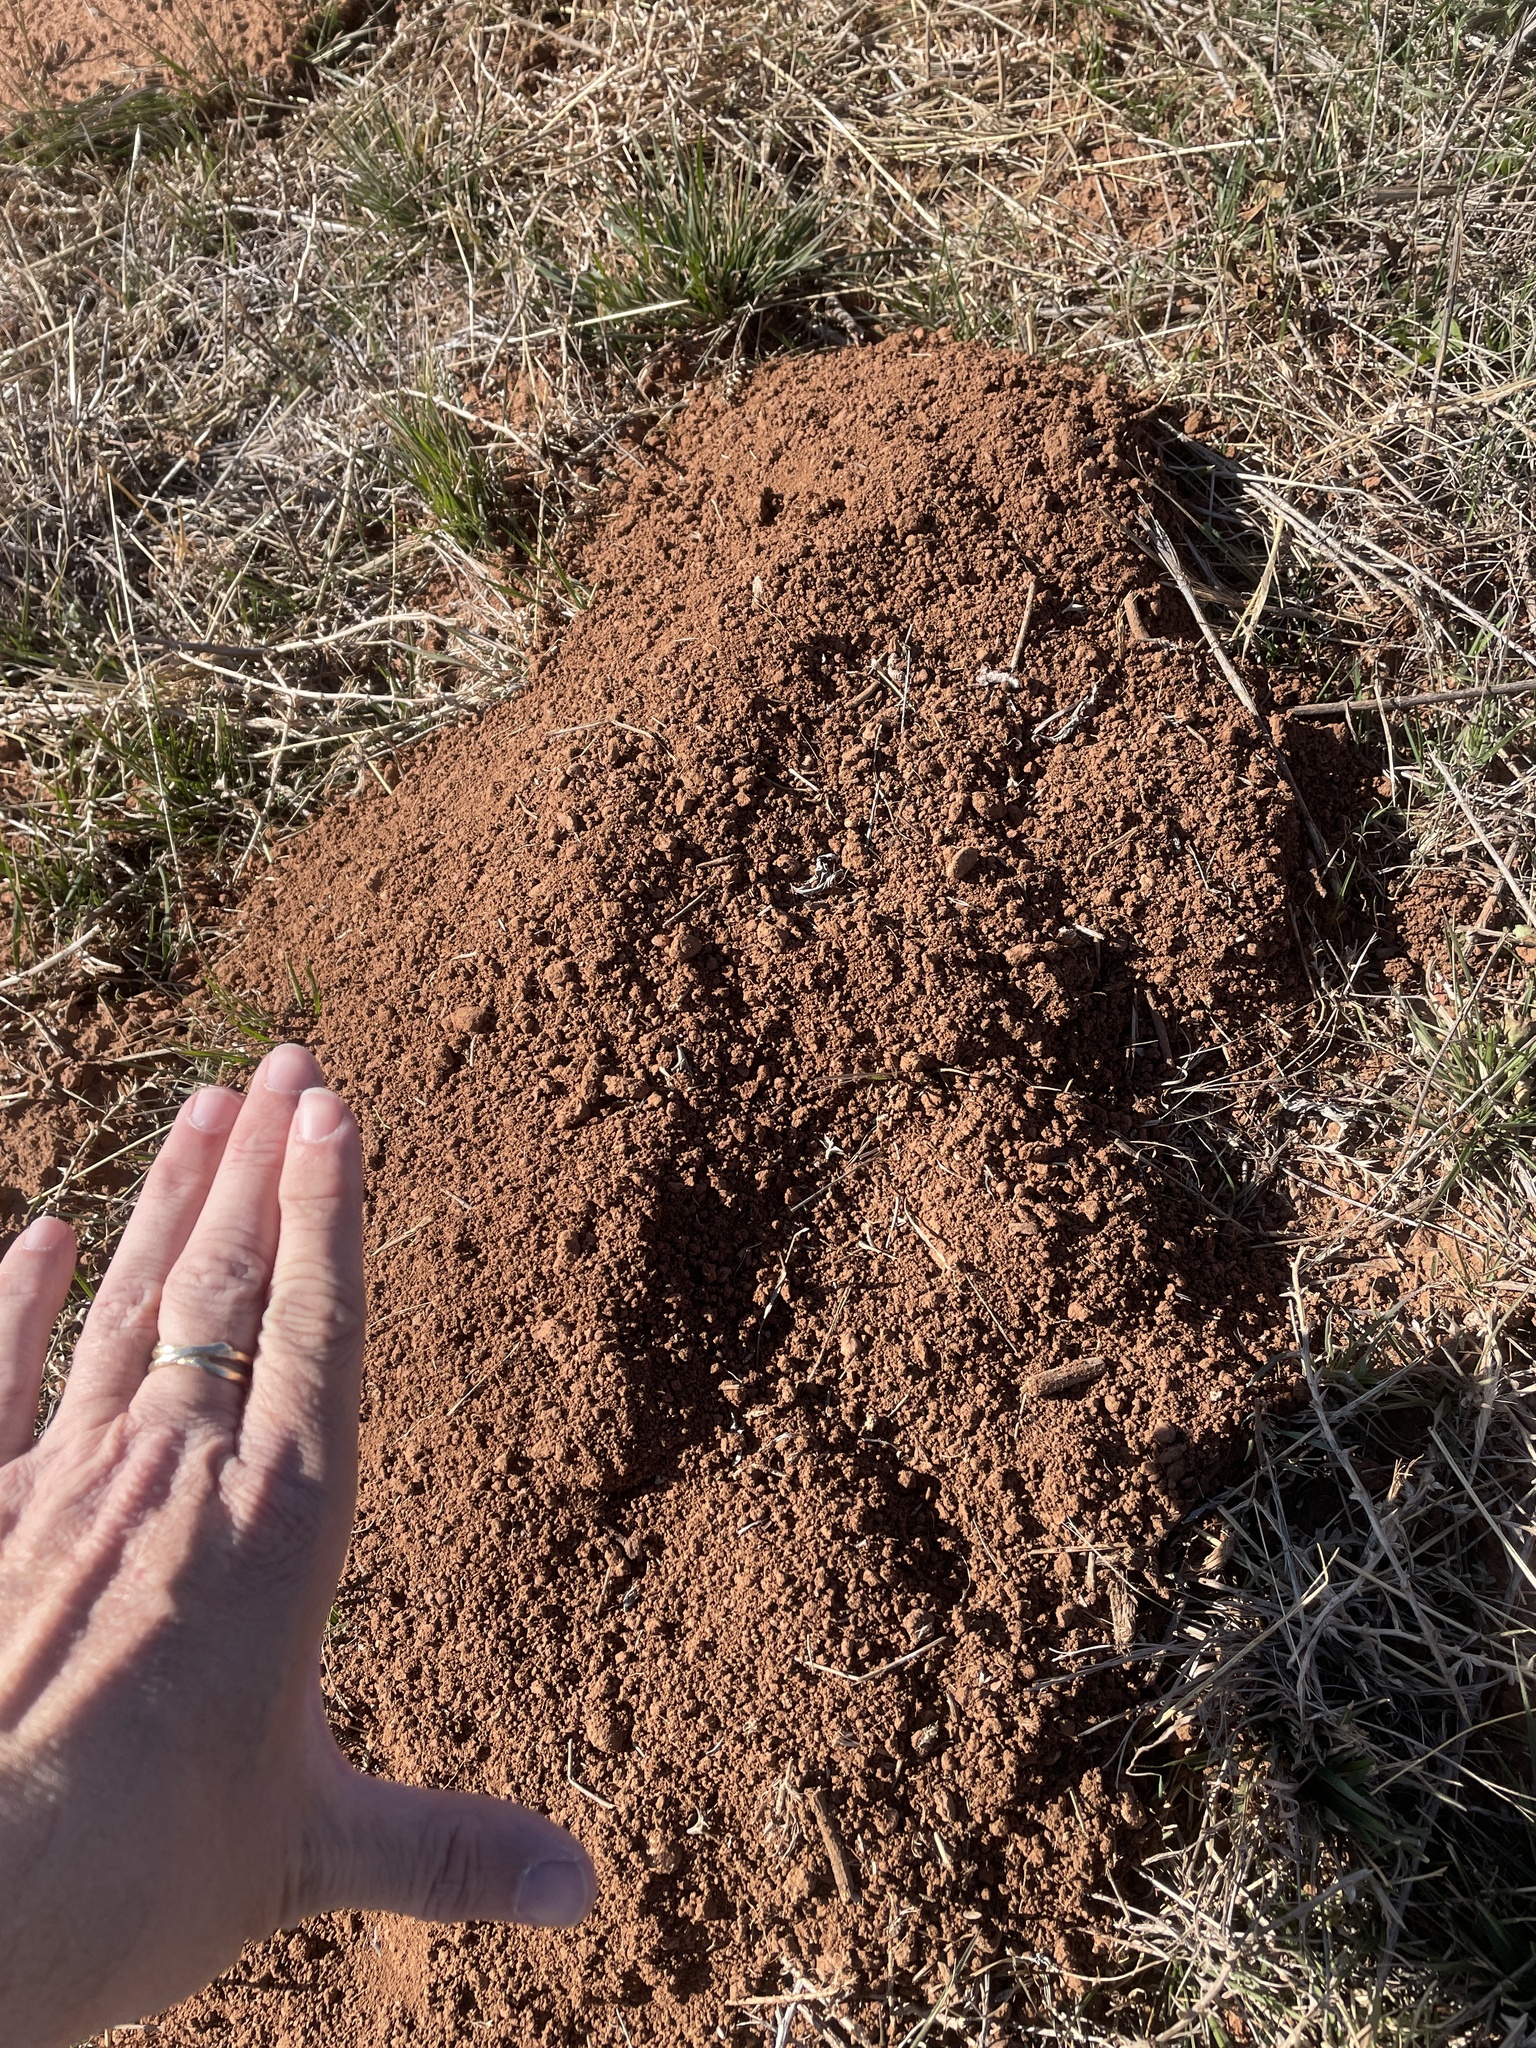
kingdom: Animalia
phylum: Chordata
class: Mammalia
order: Rodentia
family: Geomyidae
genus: Geomys
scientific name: Geomys bursarius
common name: Plains pocket gopher
